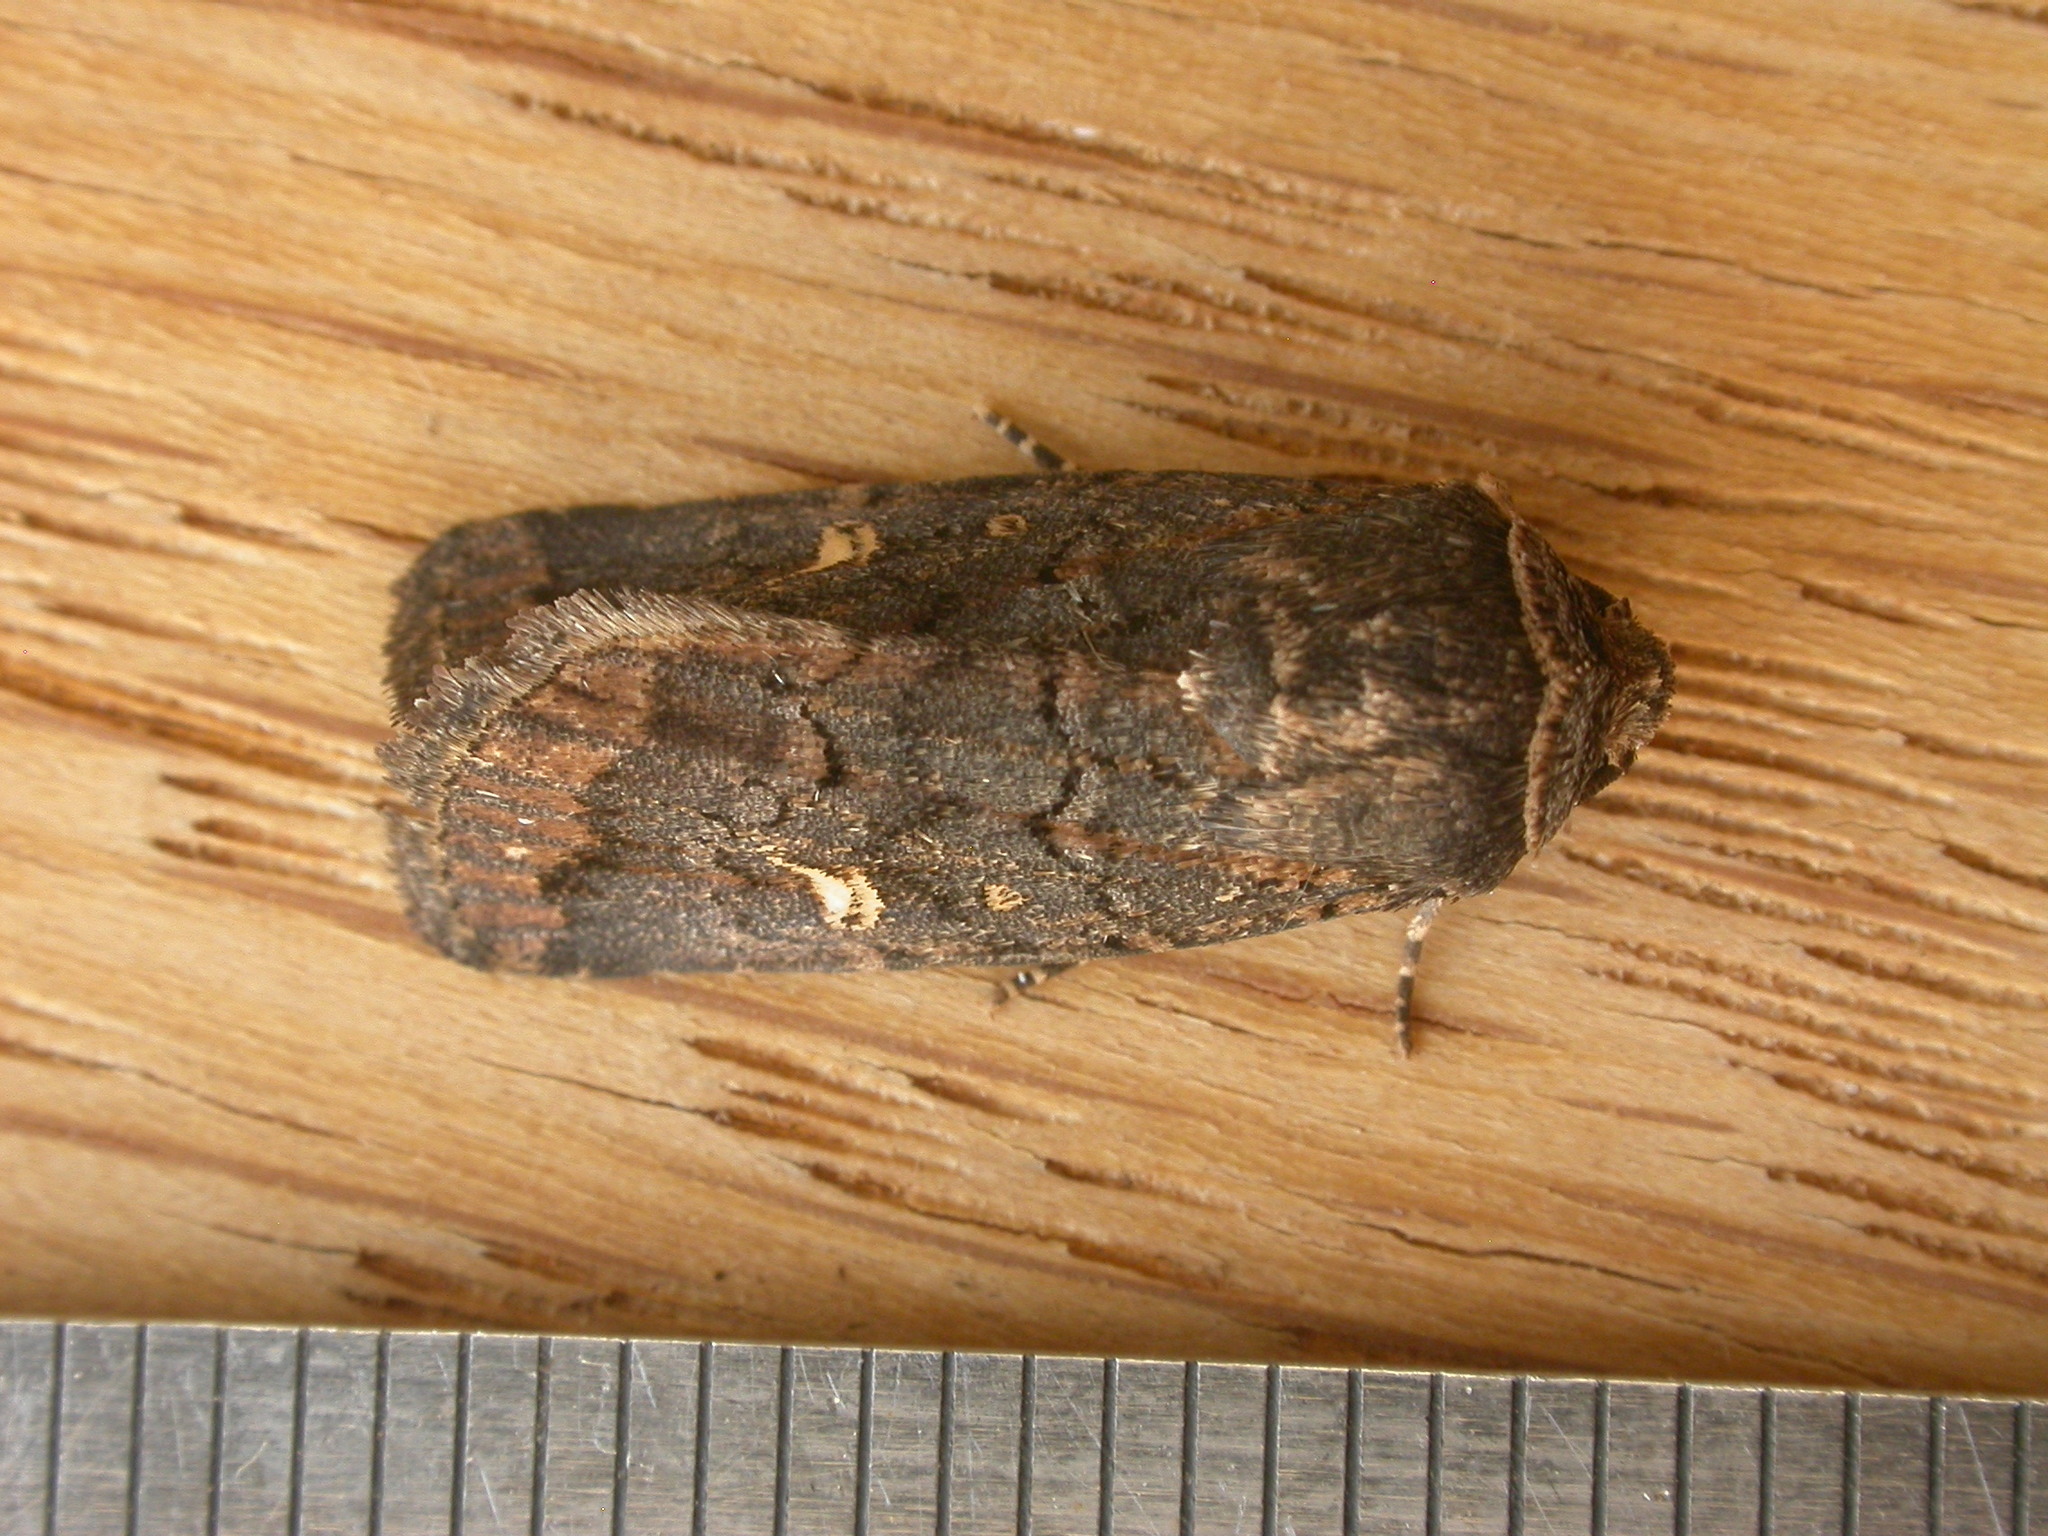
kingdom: Animalia
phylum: Arthropoda
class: Insecta
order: Lepidoptera
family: Noctuidae
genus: Proteuxoa
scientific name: Proteuxoa bistrigula
